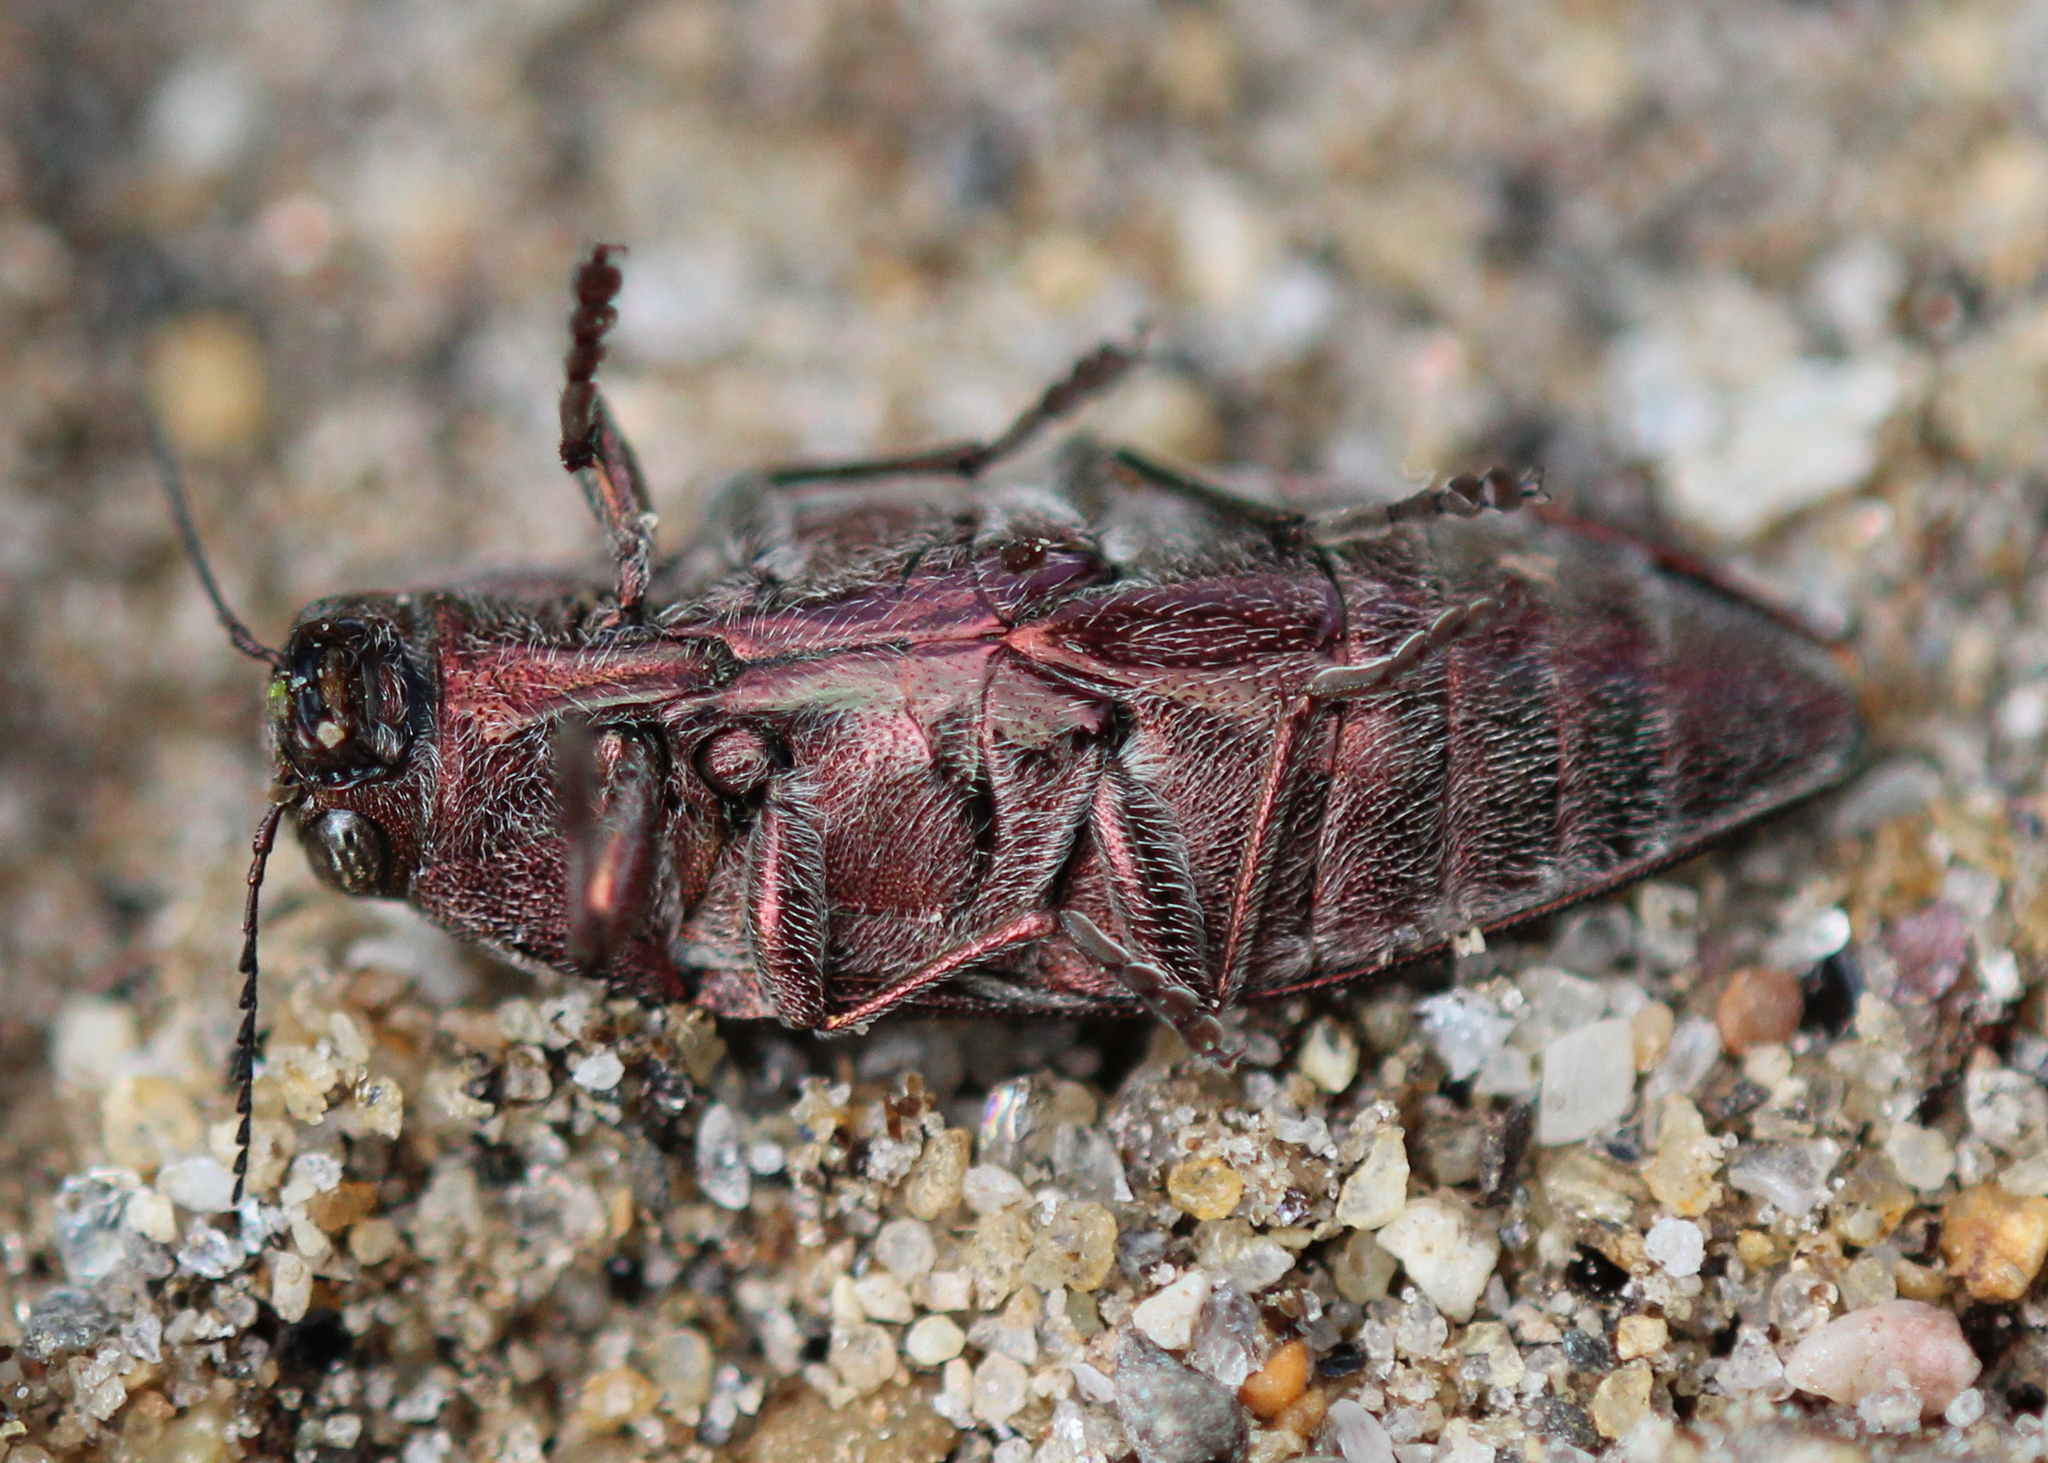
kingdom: Animalia
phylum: Arthropoda
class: Insecta
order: Coleoptera
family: Buprestidae
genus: Buprestis
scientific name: Buprestis striata
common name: Striated jewel beetle
